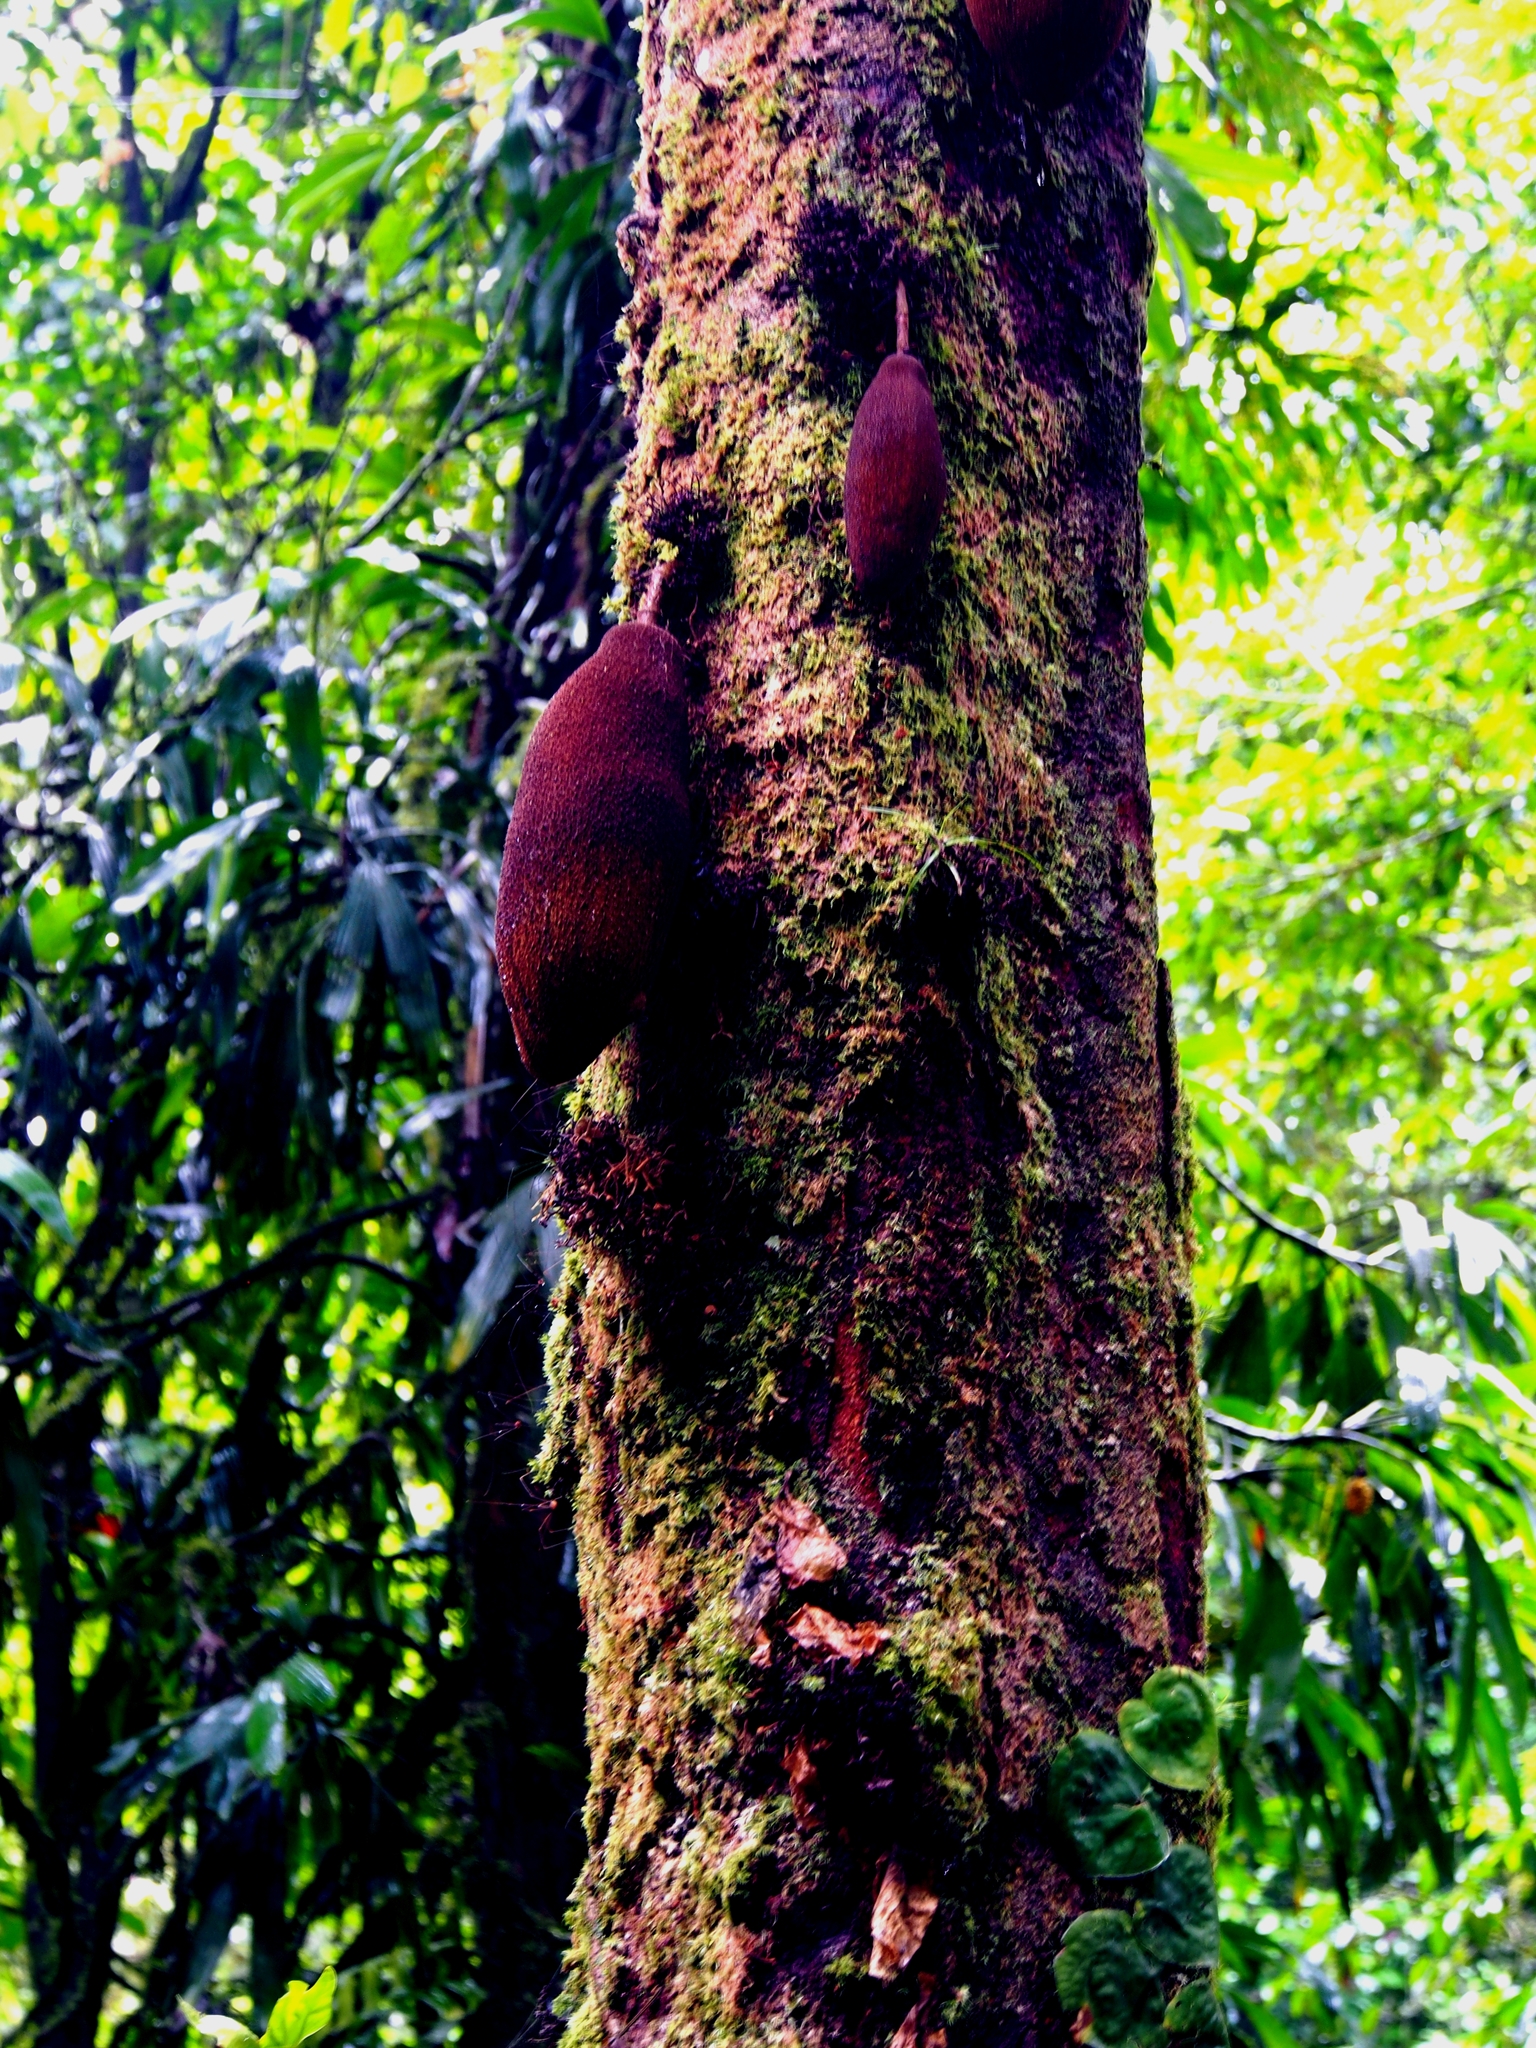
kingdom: Plantae
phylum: Tracheophyta
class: Magnoliopsida
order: Malvales
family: Malvaceae
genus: Theobroma
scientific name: Theobroma simiarum
